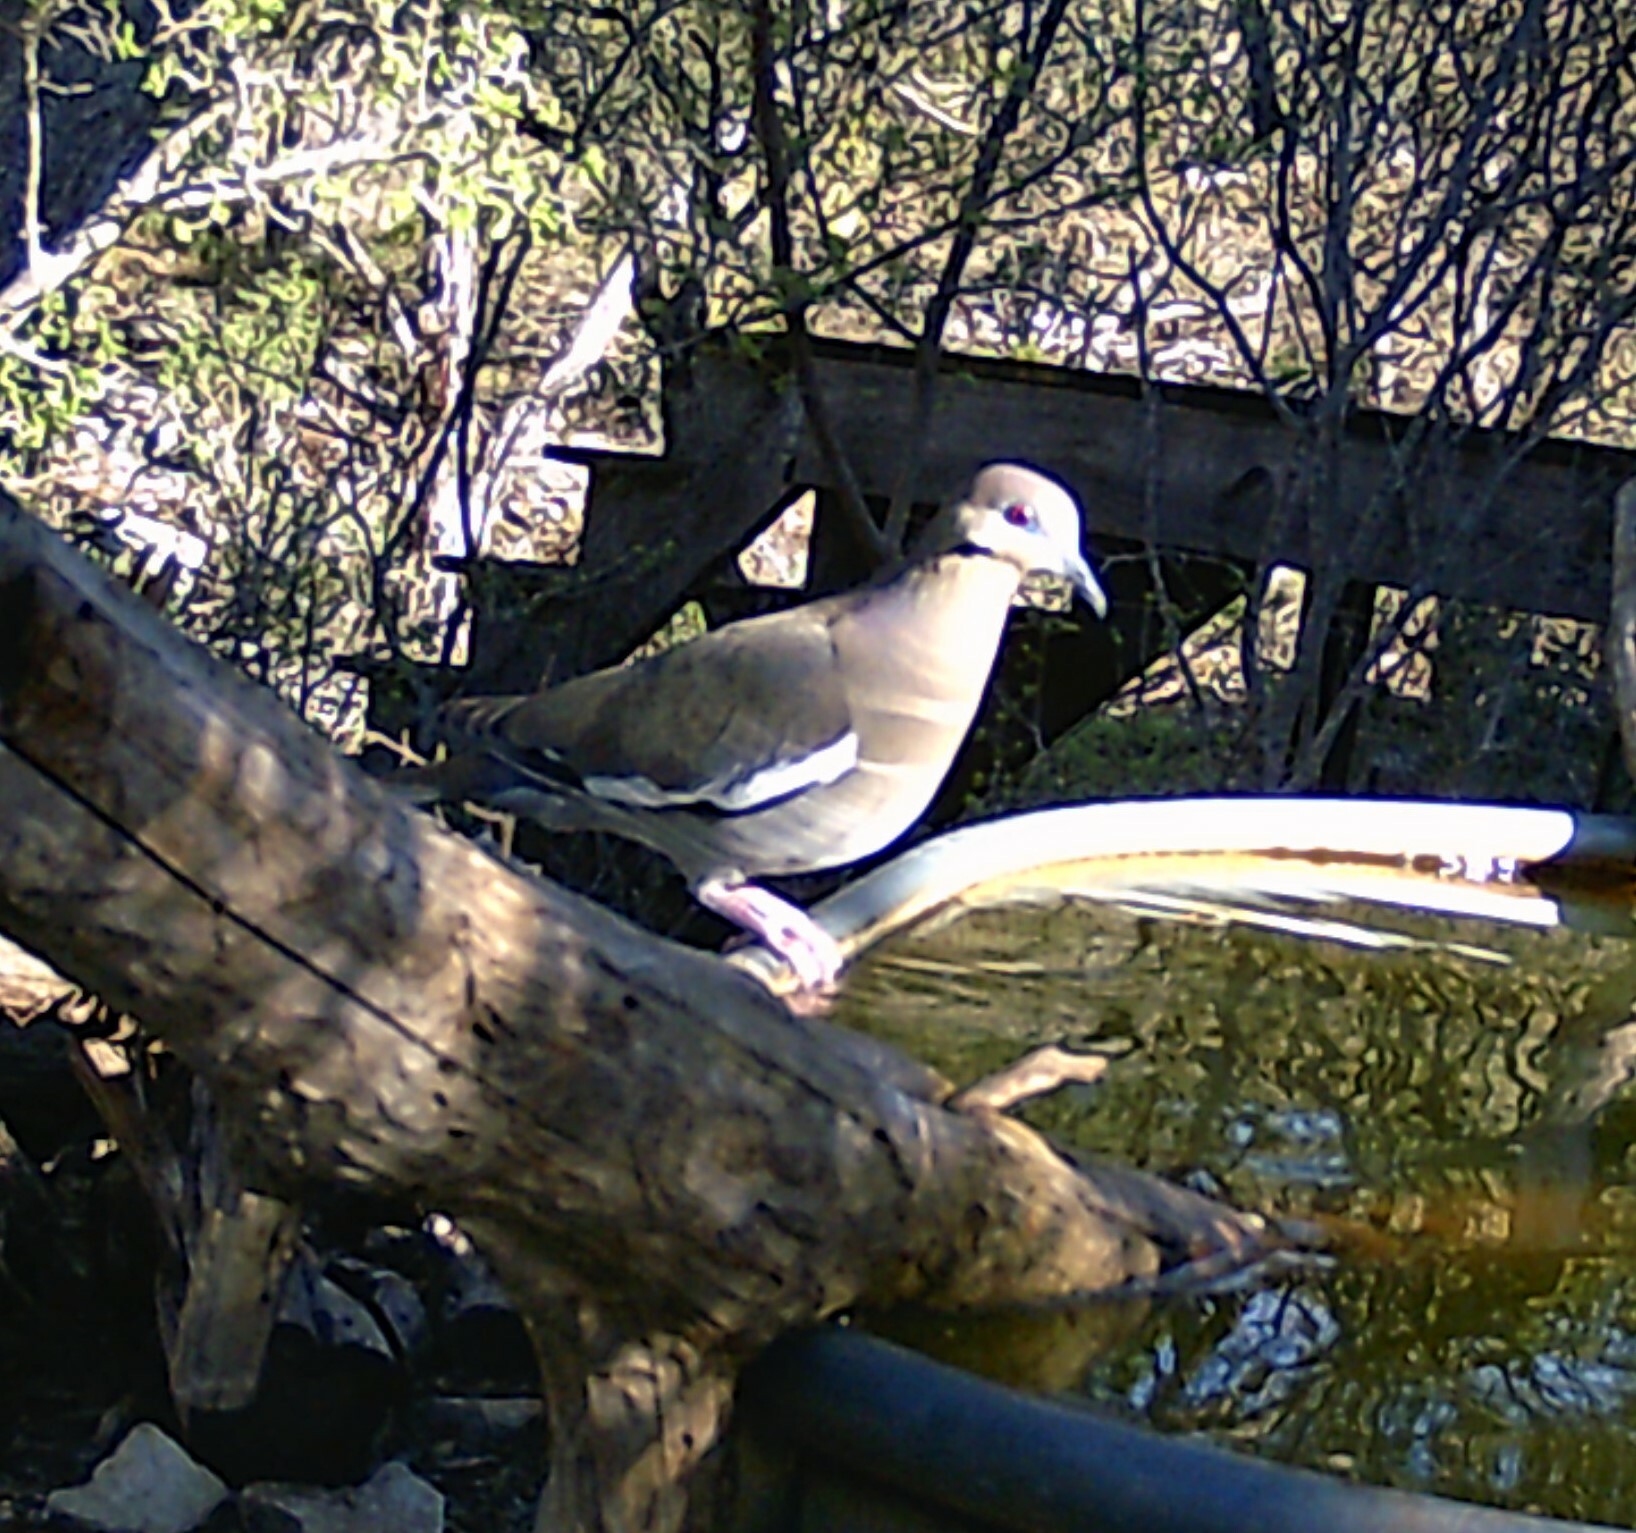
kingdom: Animalia
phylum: Chordata
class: Aves
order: Columbiformes
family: Columbidae
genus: Zenaida
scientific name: Zenaida asiatica
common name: White-winged dove
